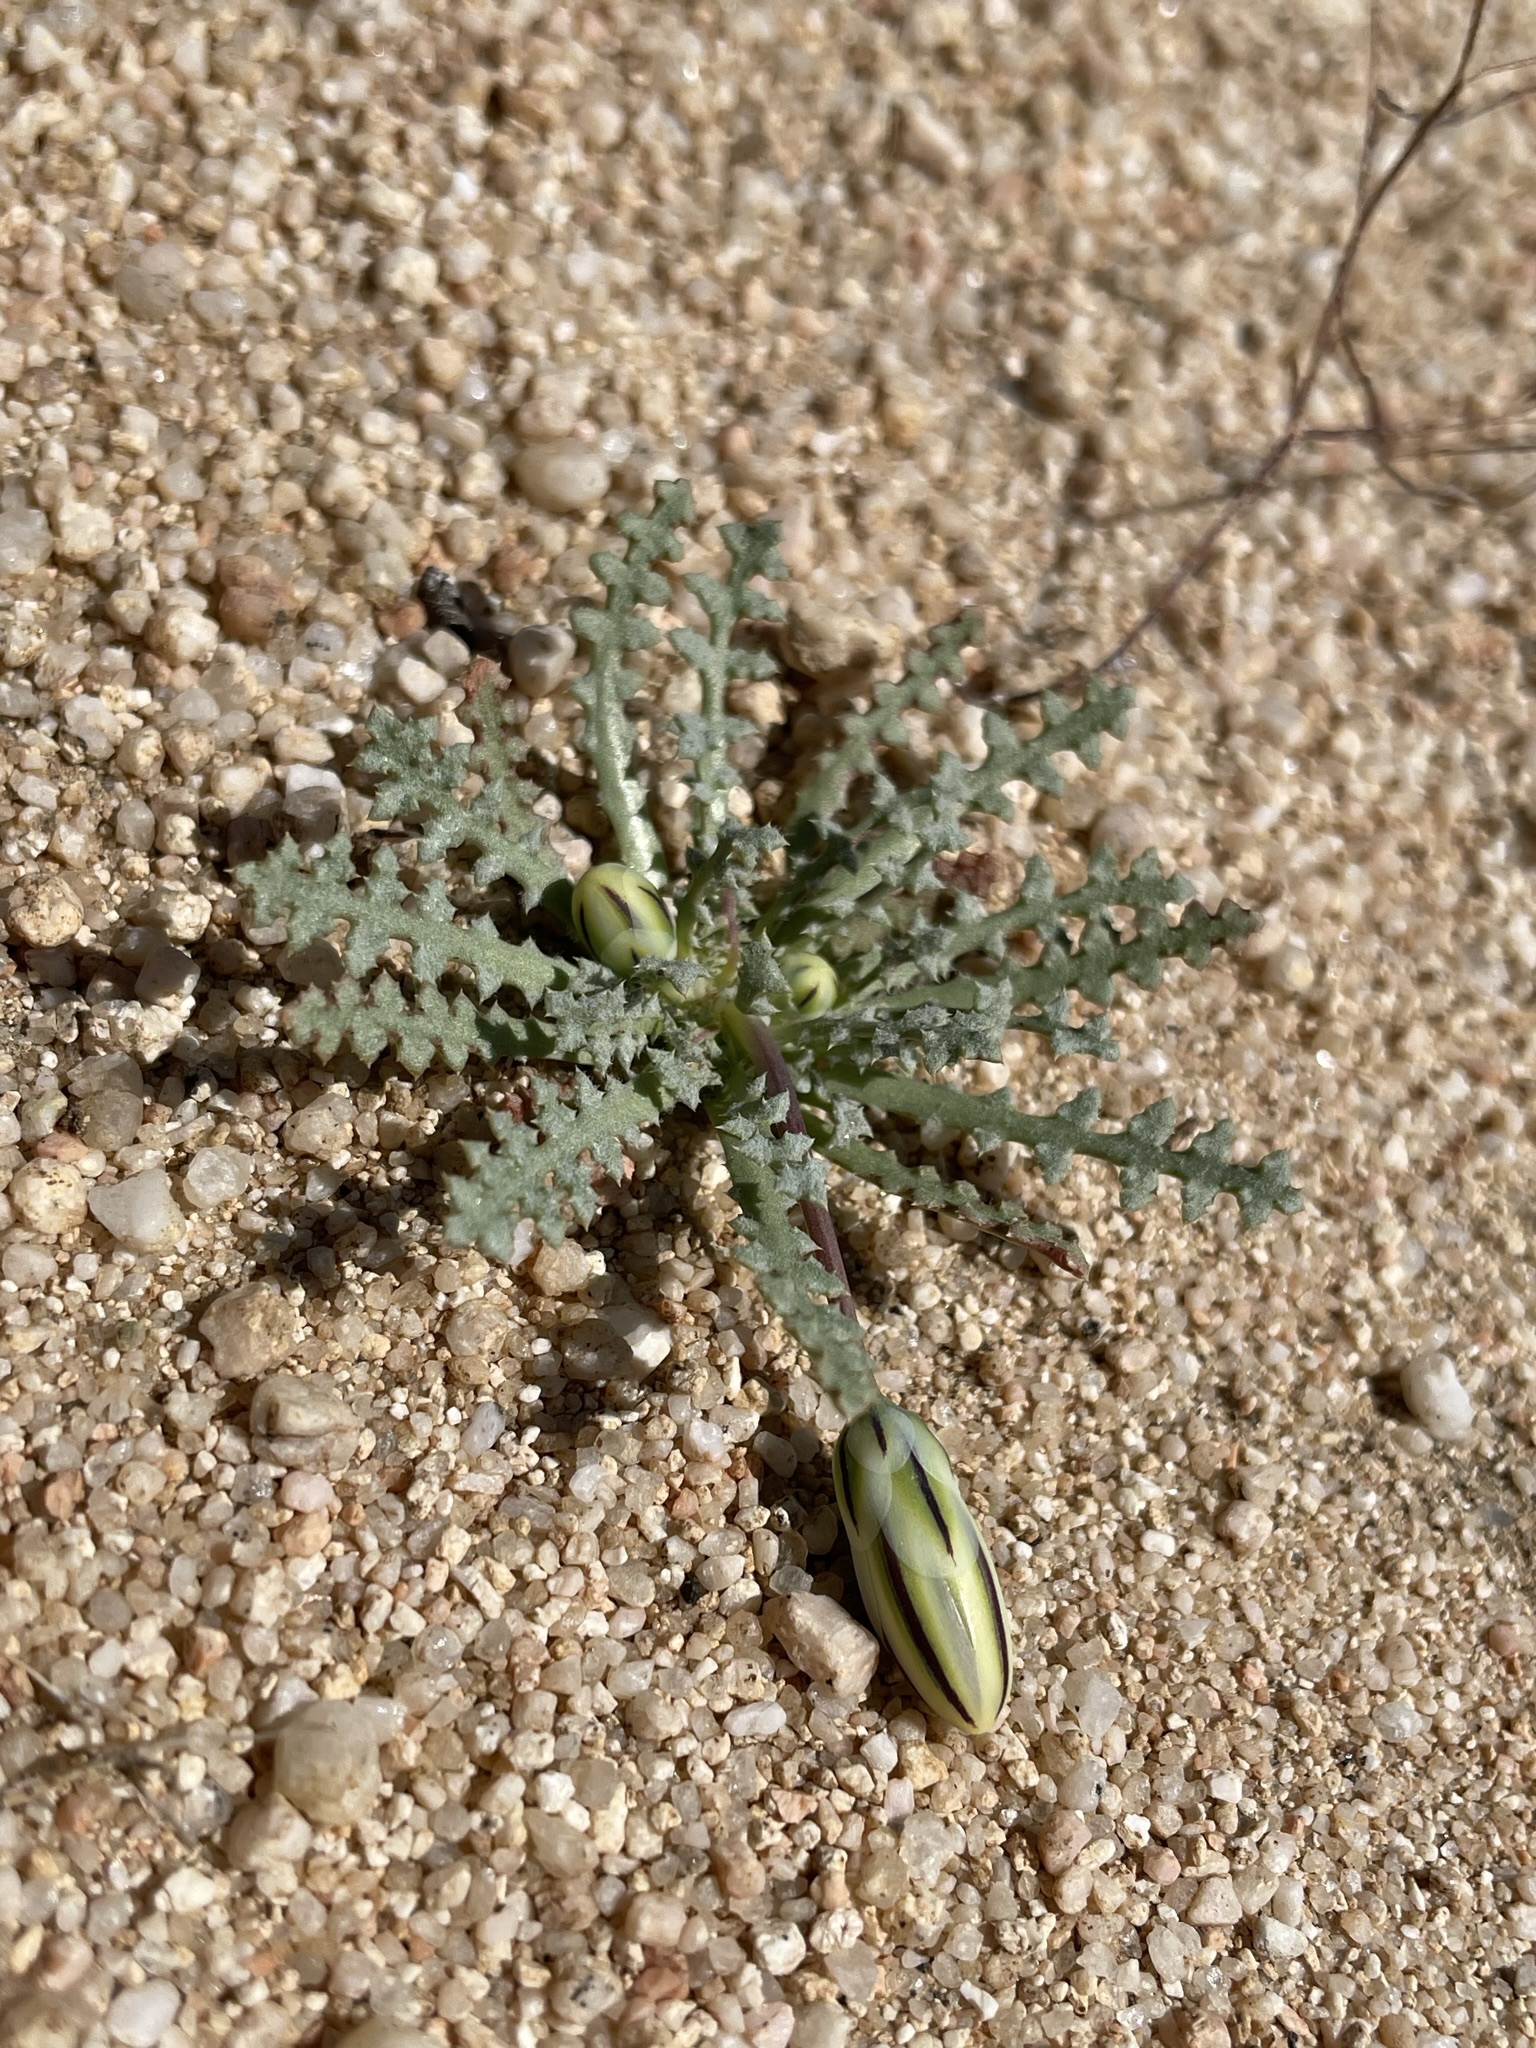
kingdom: Plantae
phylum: Tracheophyta
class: Magnoliopsida
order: Asterales
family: Asteraceae
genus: Anisocoma
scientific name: Anisocoma acaulis
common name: Scalebud
